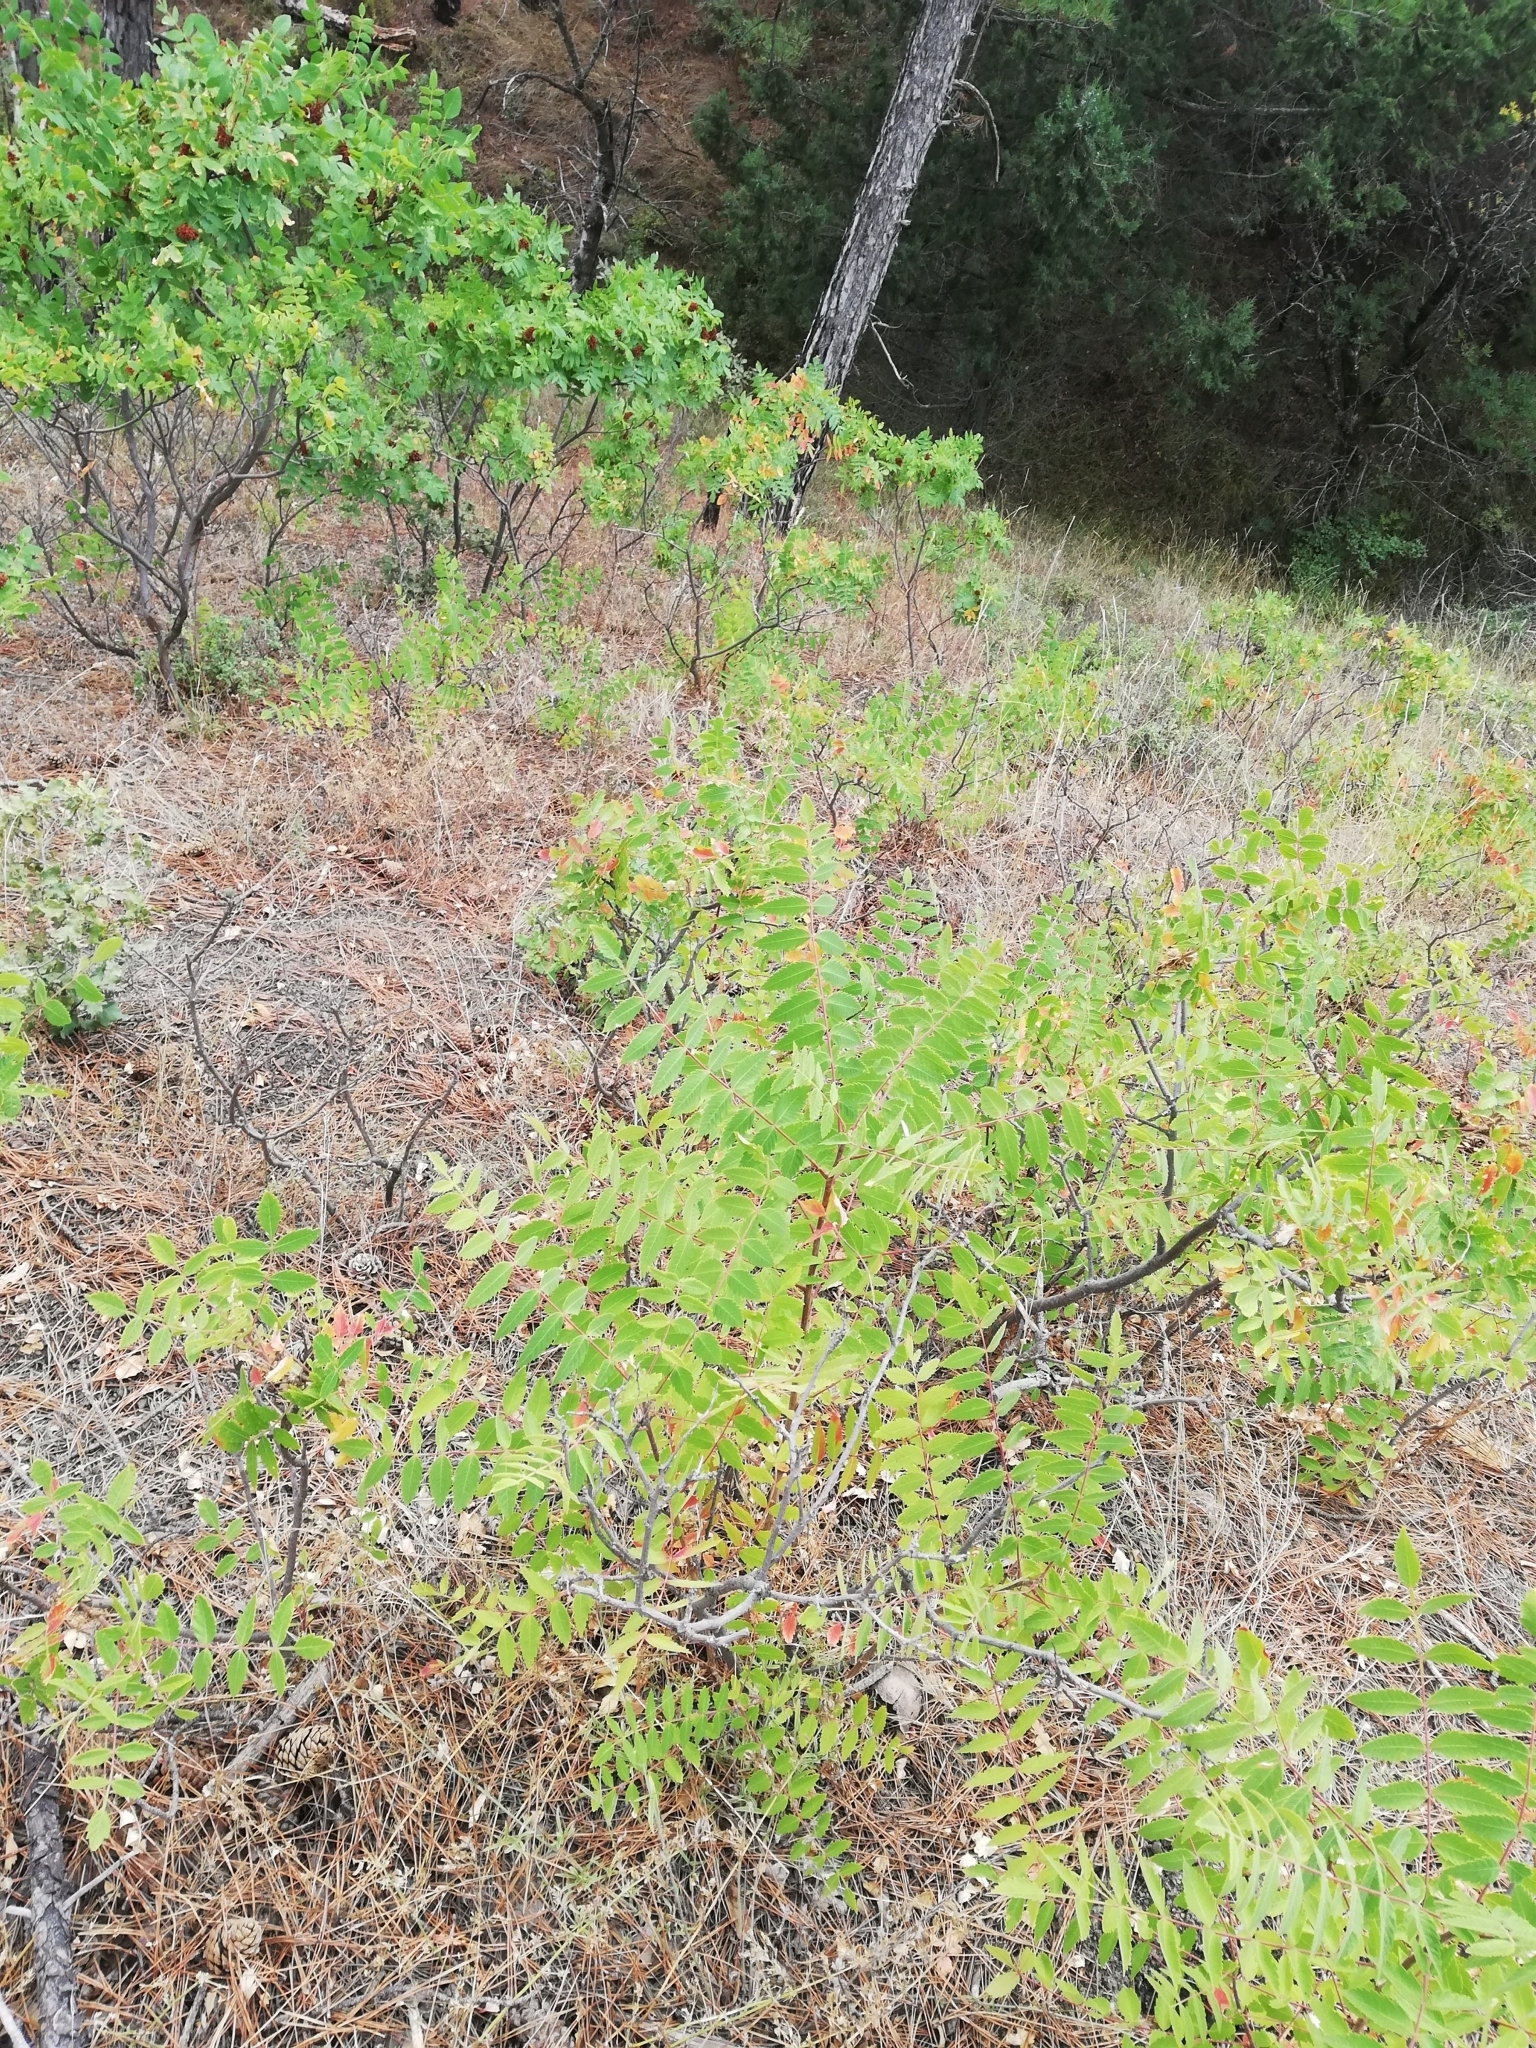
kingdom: Plantae
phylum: Tracheophyta
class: Magnoliopsida
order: Sapindales
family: Anacardiaceae
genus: Rhus
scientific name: Rhus coriaria
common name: Tanner's sumach
